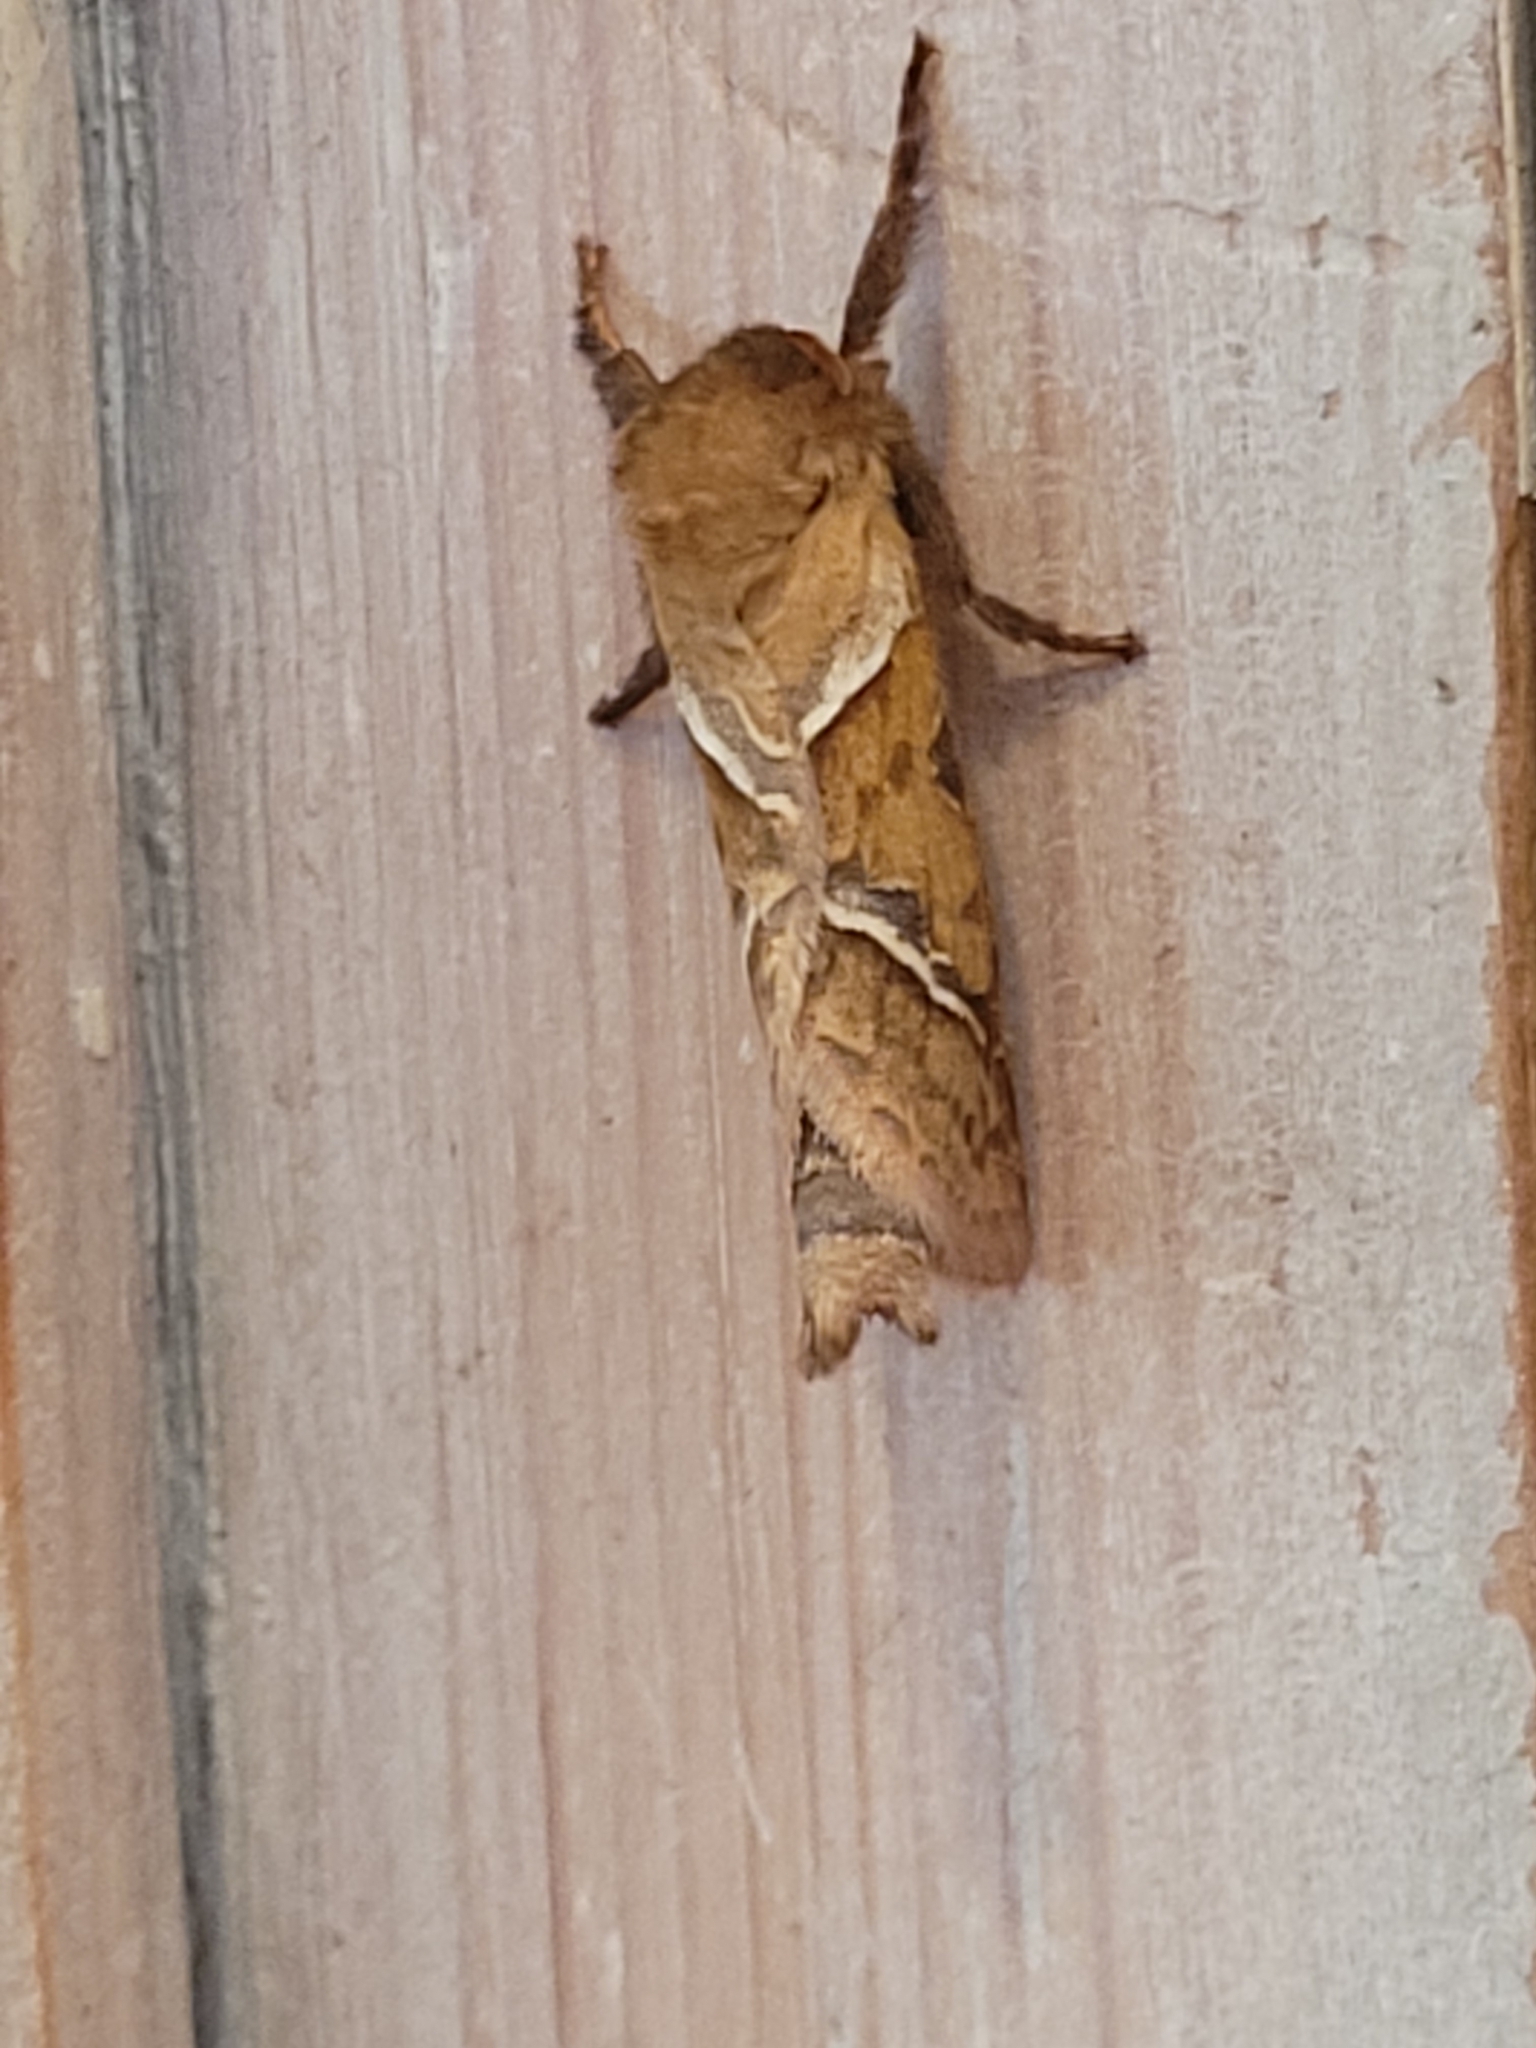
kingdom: Animalia
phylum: Arthropoda
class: Insecta
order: Lepidoptera
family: Hepialidae
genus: Triodia
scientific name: Triodia sylvina
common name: Orange swift
